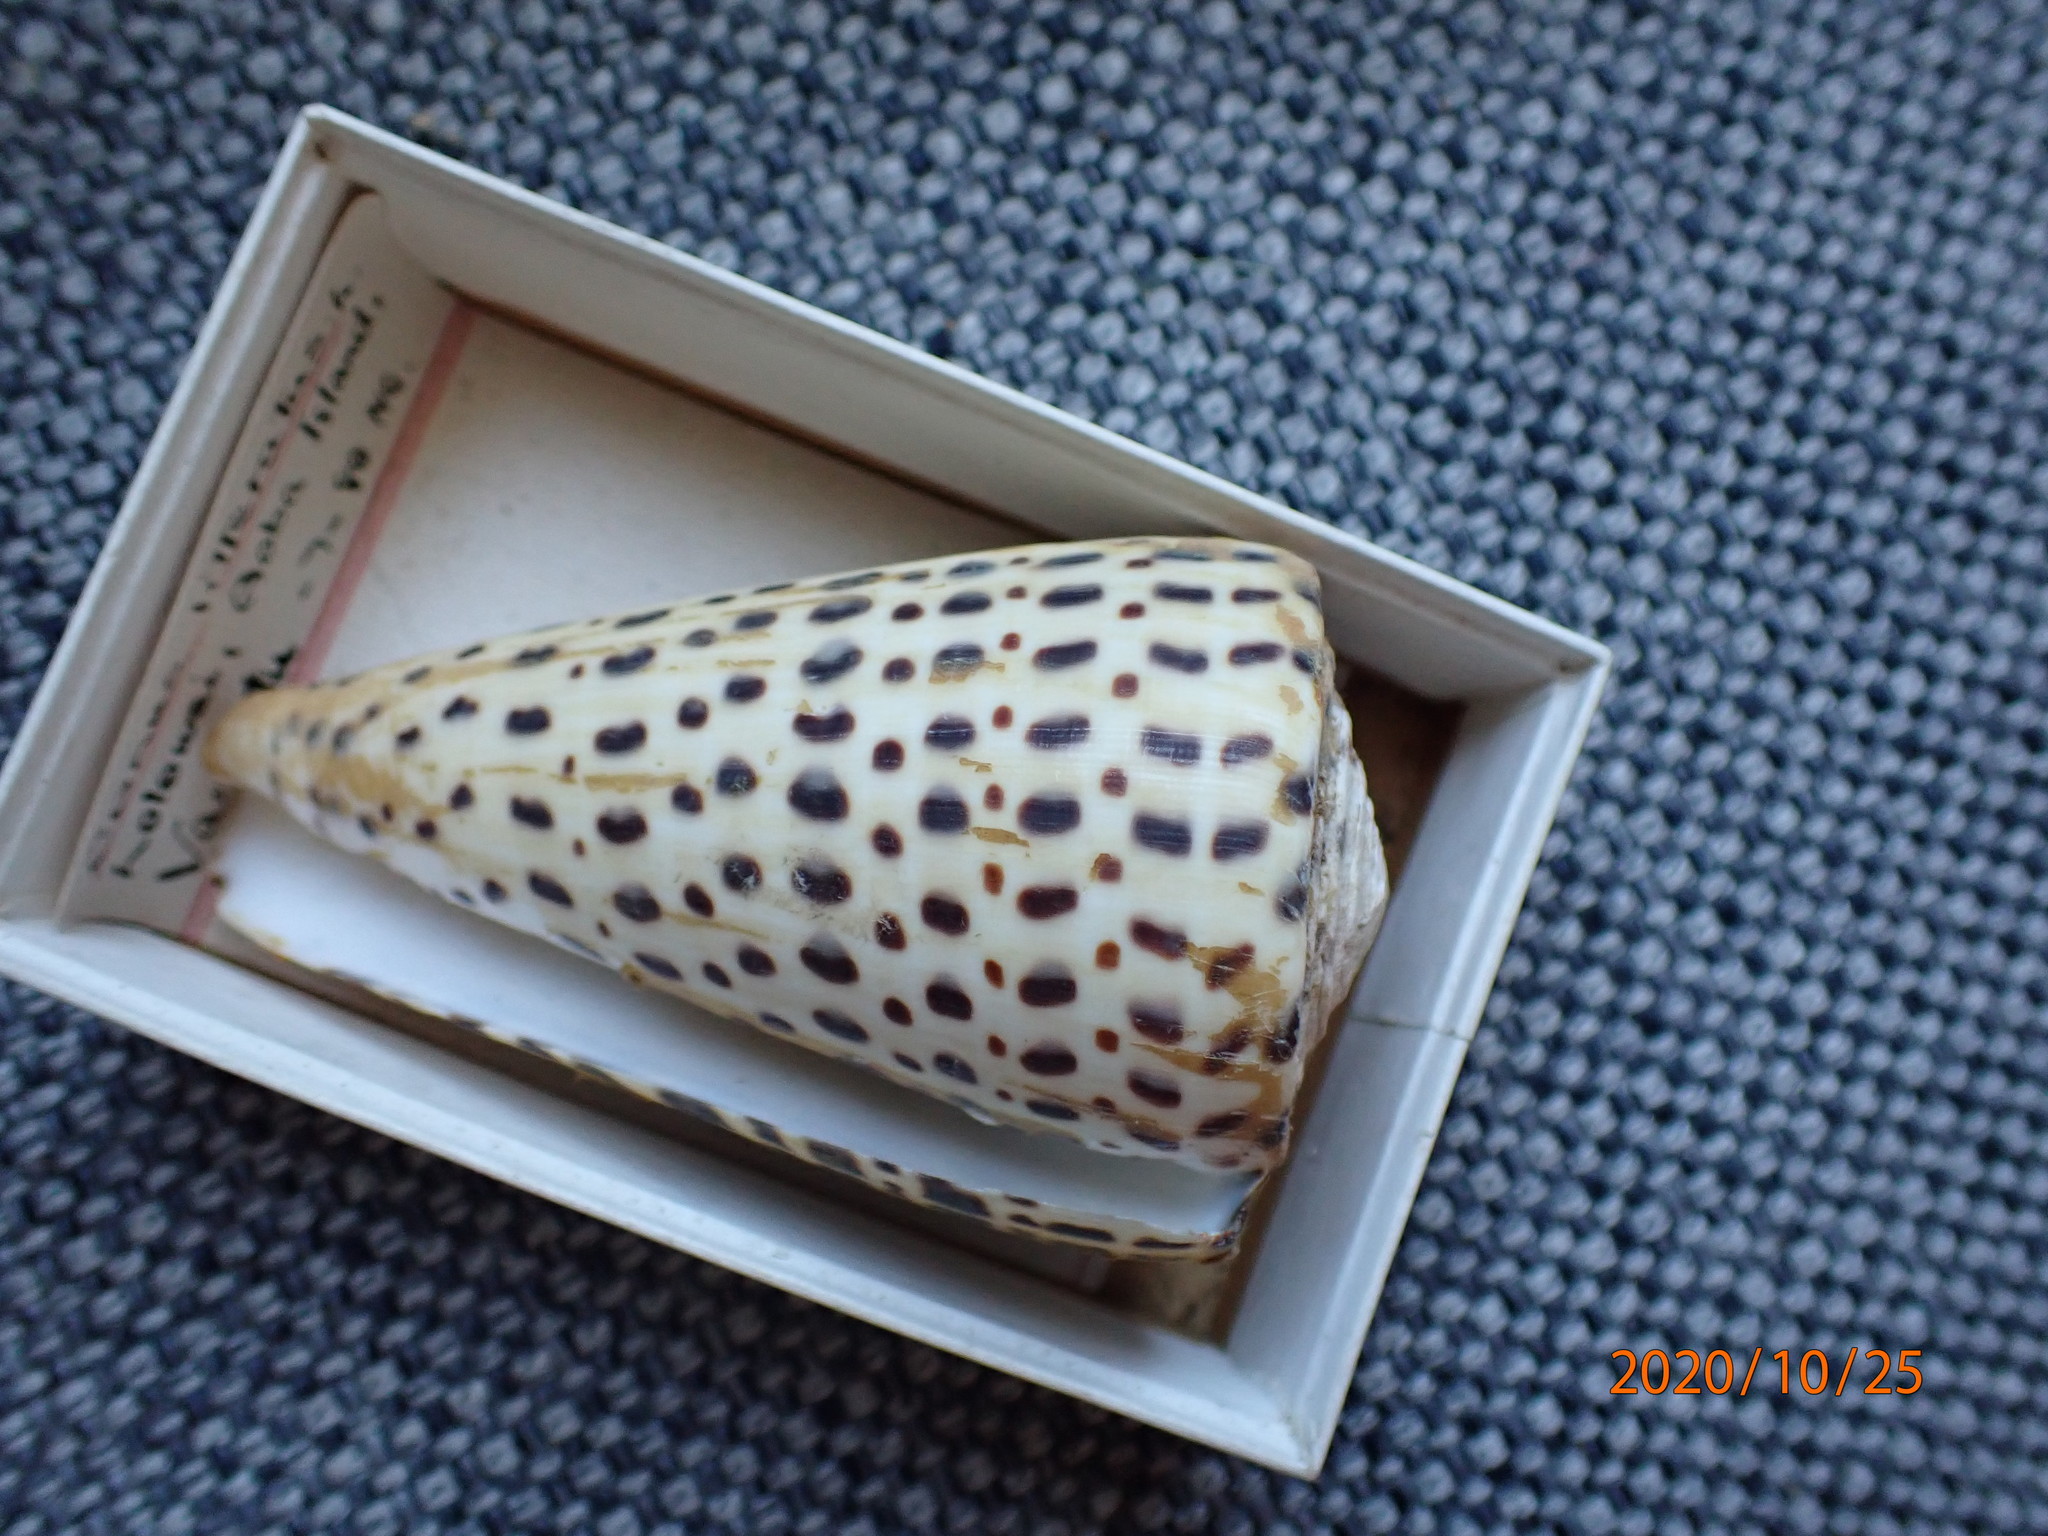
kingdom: Animalia
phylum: Mollusca
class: Gastropoda
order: Neogastropoda
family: Conidae
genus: Conus
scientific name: Conus leopardus
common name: Leopard cone
